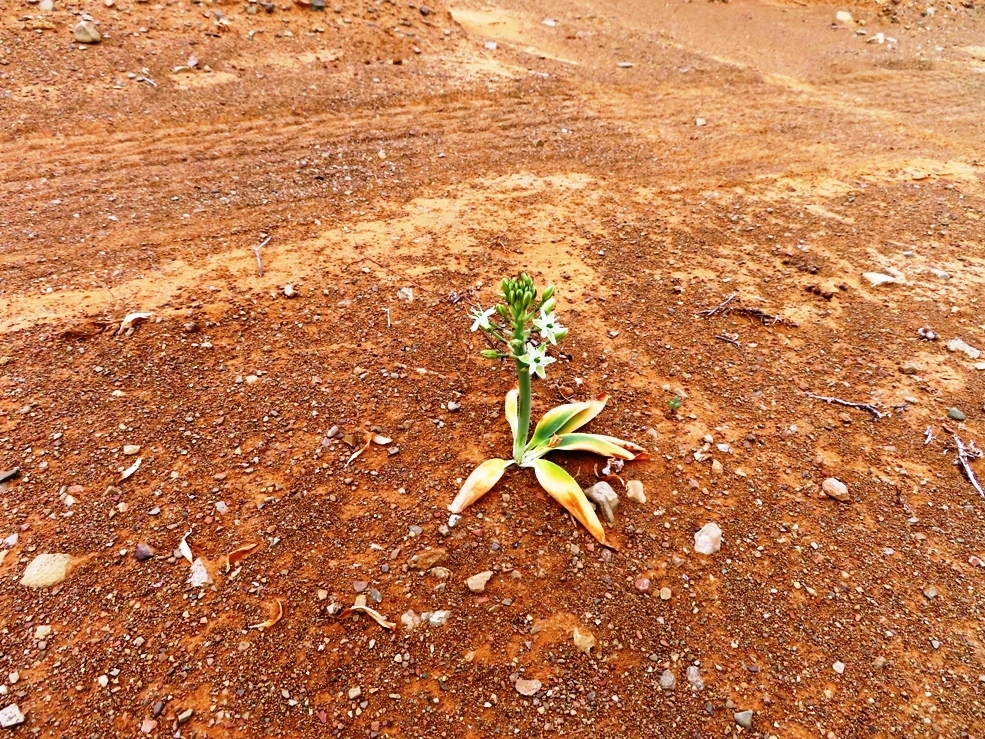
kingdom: Plantae
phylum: Tracheophyta
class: Liliopsida
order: Asparagales
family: Asparagaceae
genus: Ornithogalum
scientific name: Ornithogalum tanquanum
